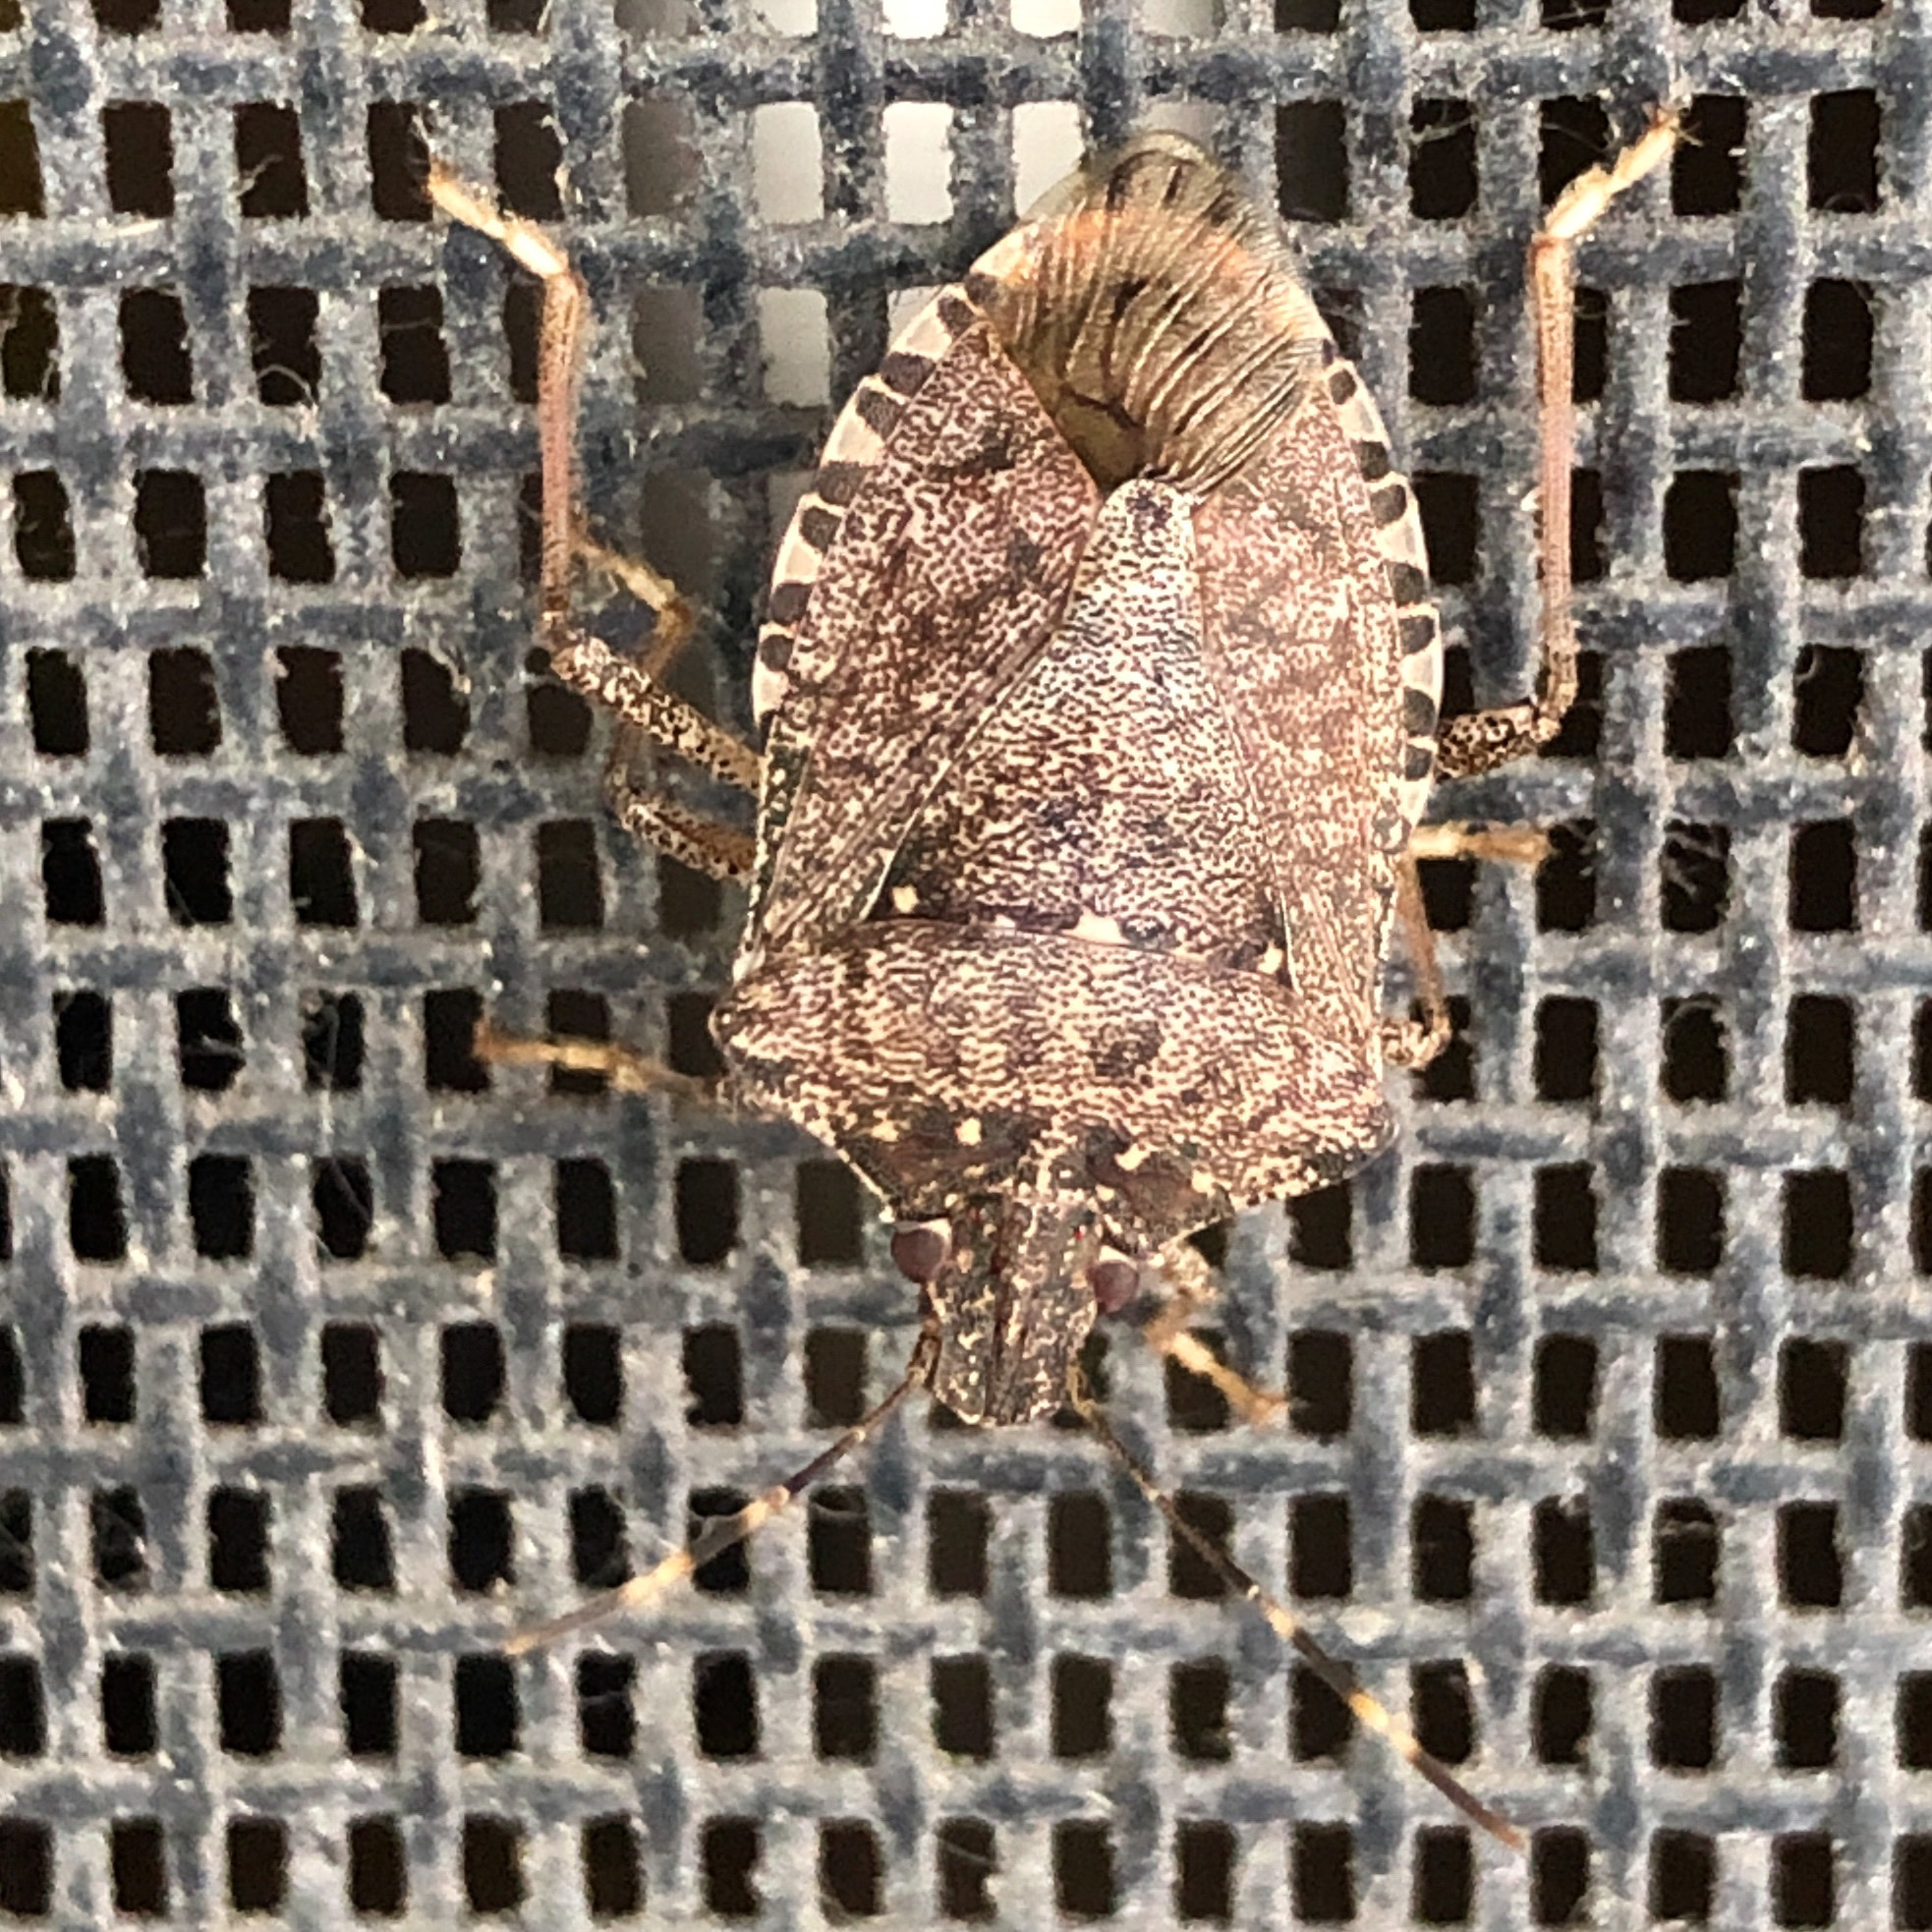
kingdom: Animalia
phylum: Arthropoda
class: Insecta
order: Hemiptera
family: Pentatomidae
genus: Halyomorpha
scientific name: Halyomorpha halys
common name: Brown marmorated stink bug
